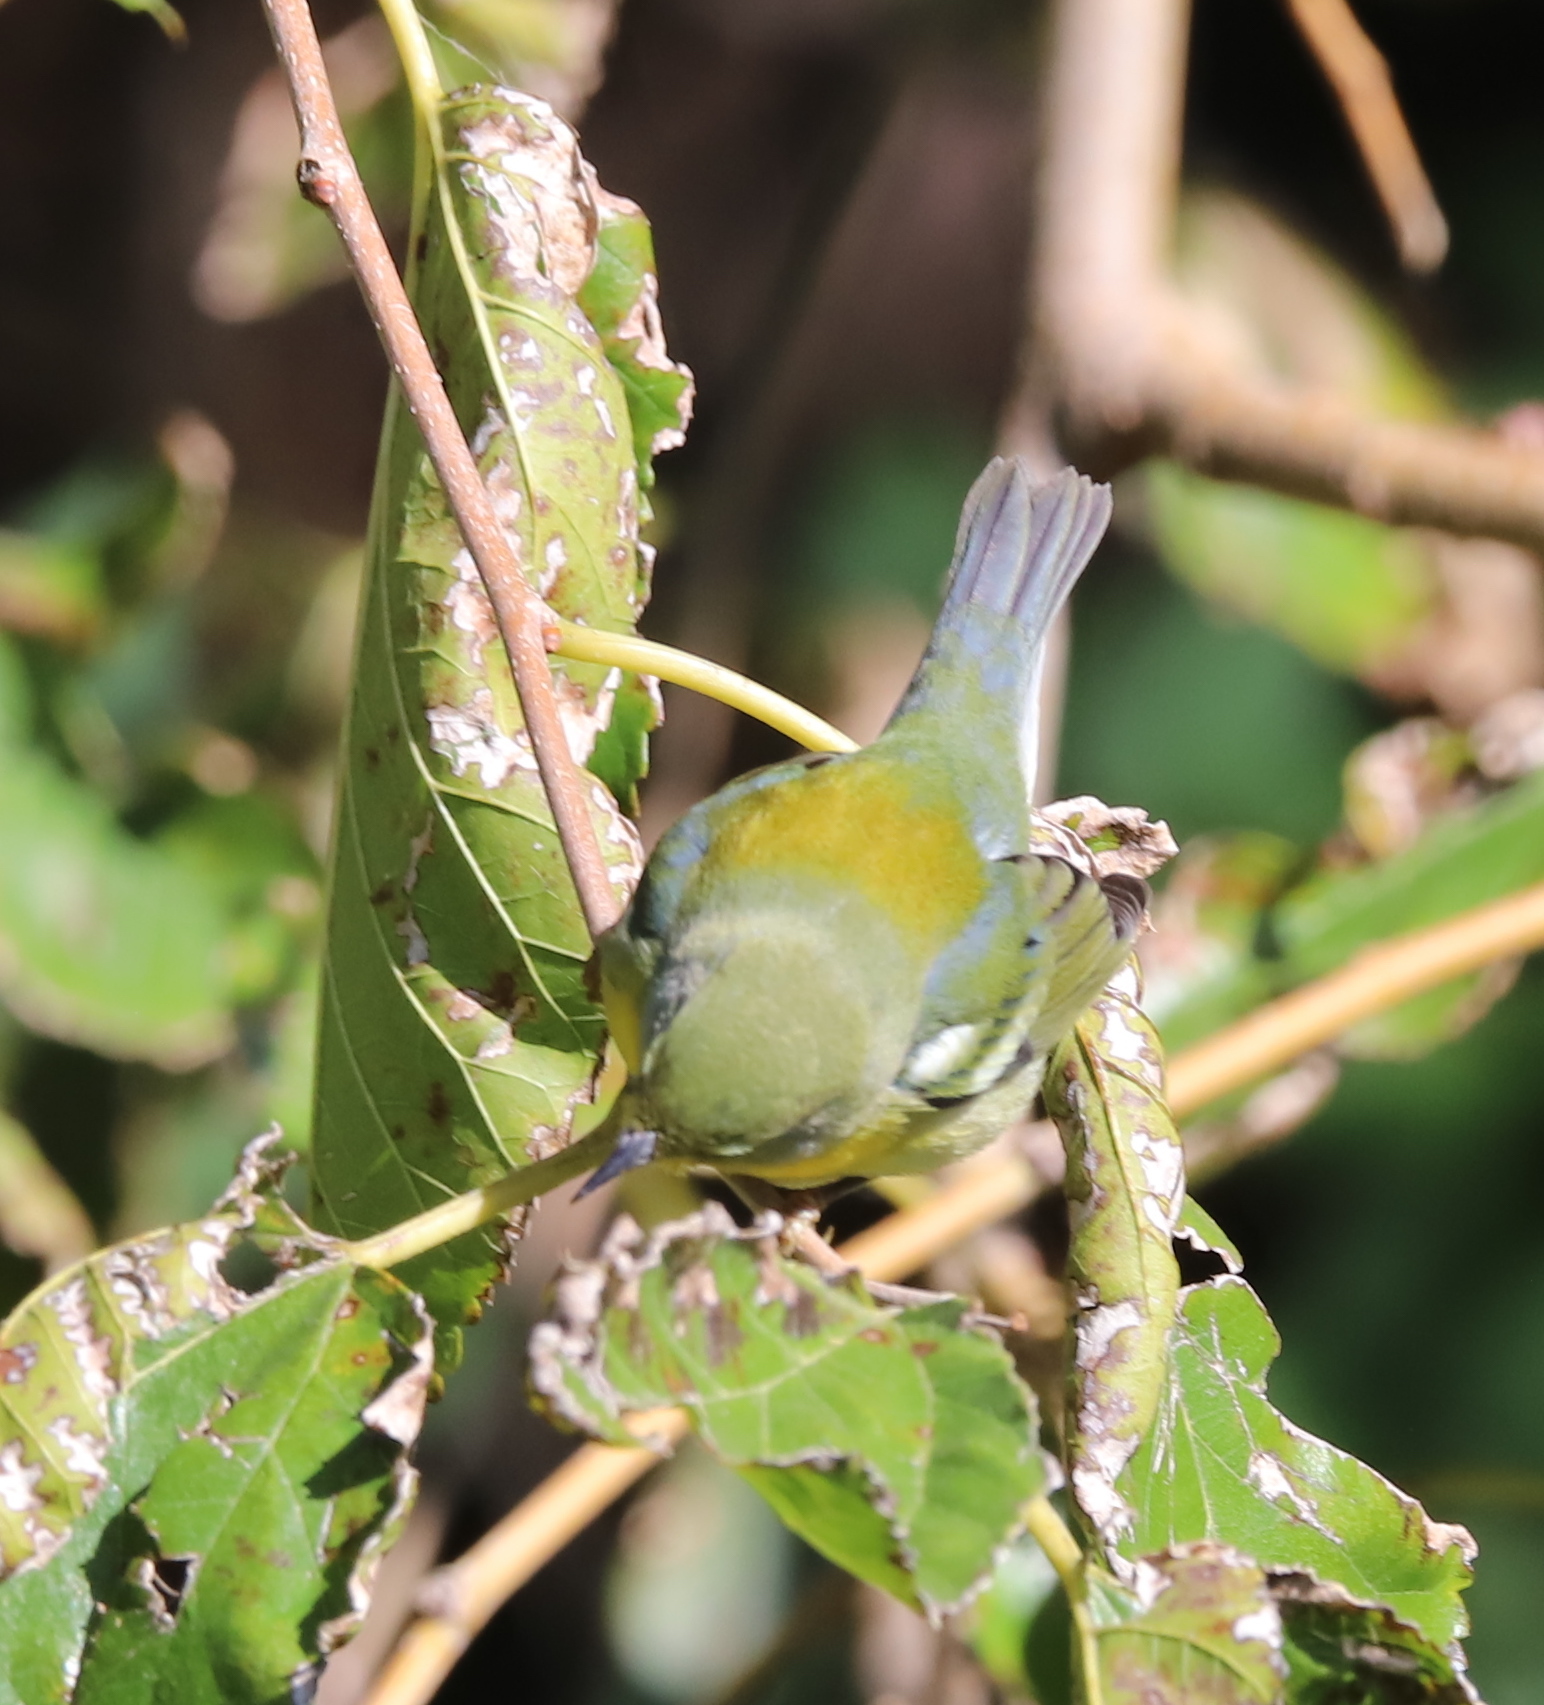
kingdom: Animalia
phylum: Chordata
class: Aves
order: Passeriformes
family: Parulidae
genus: Setophaga
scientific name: Setophaga americana
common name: Northern parula
